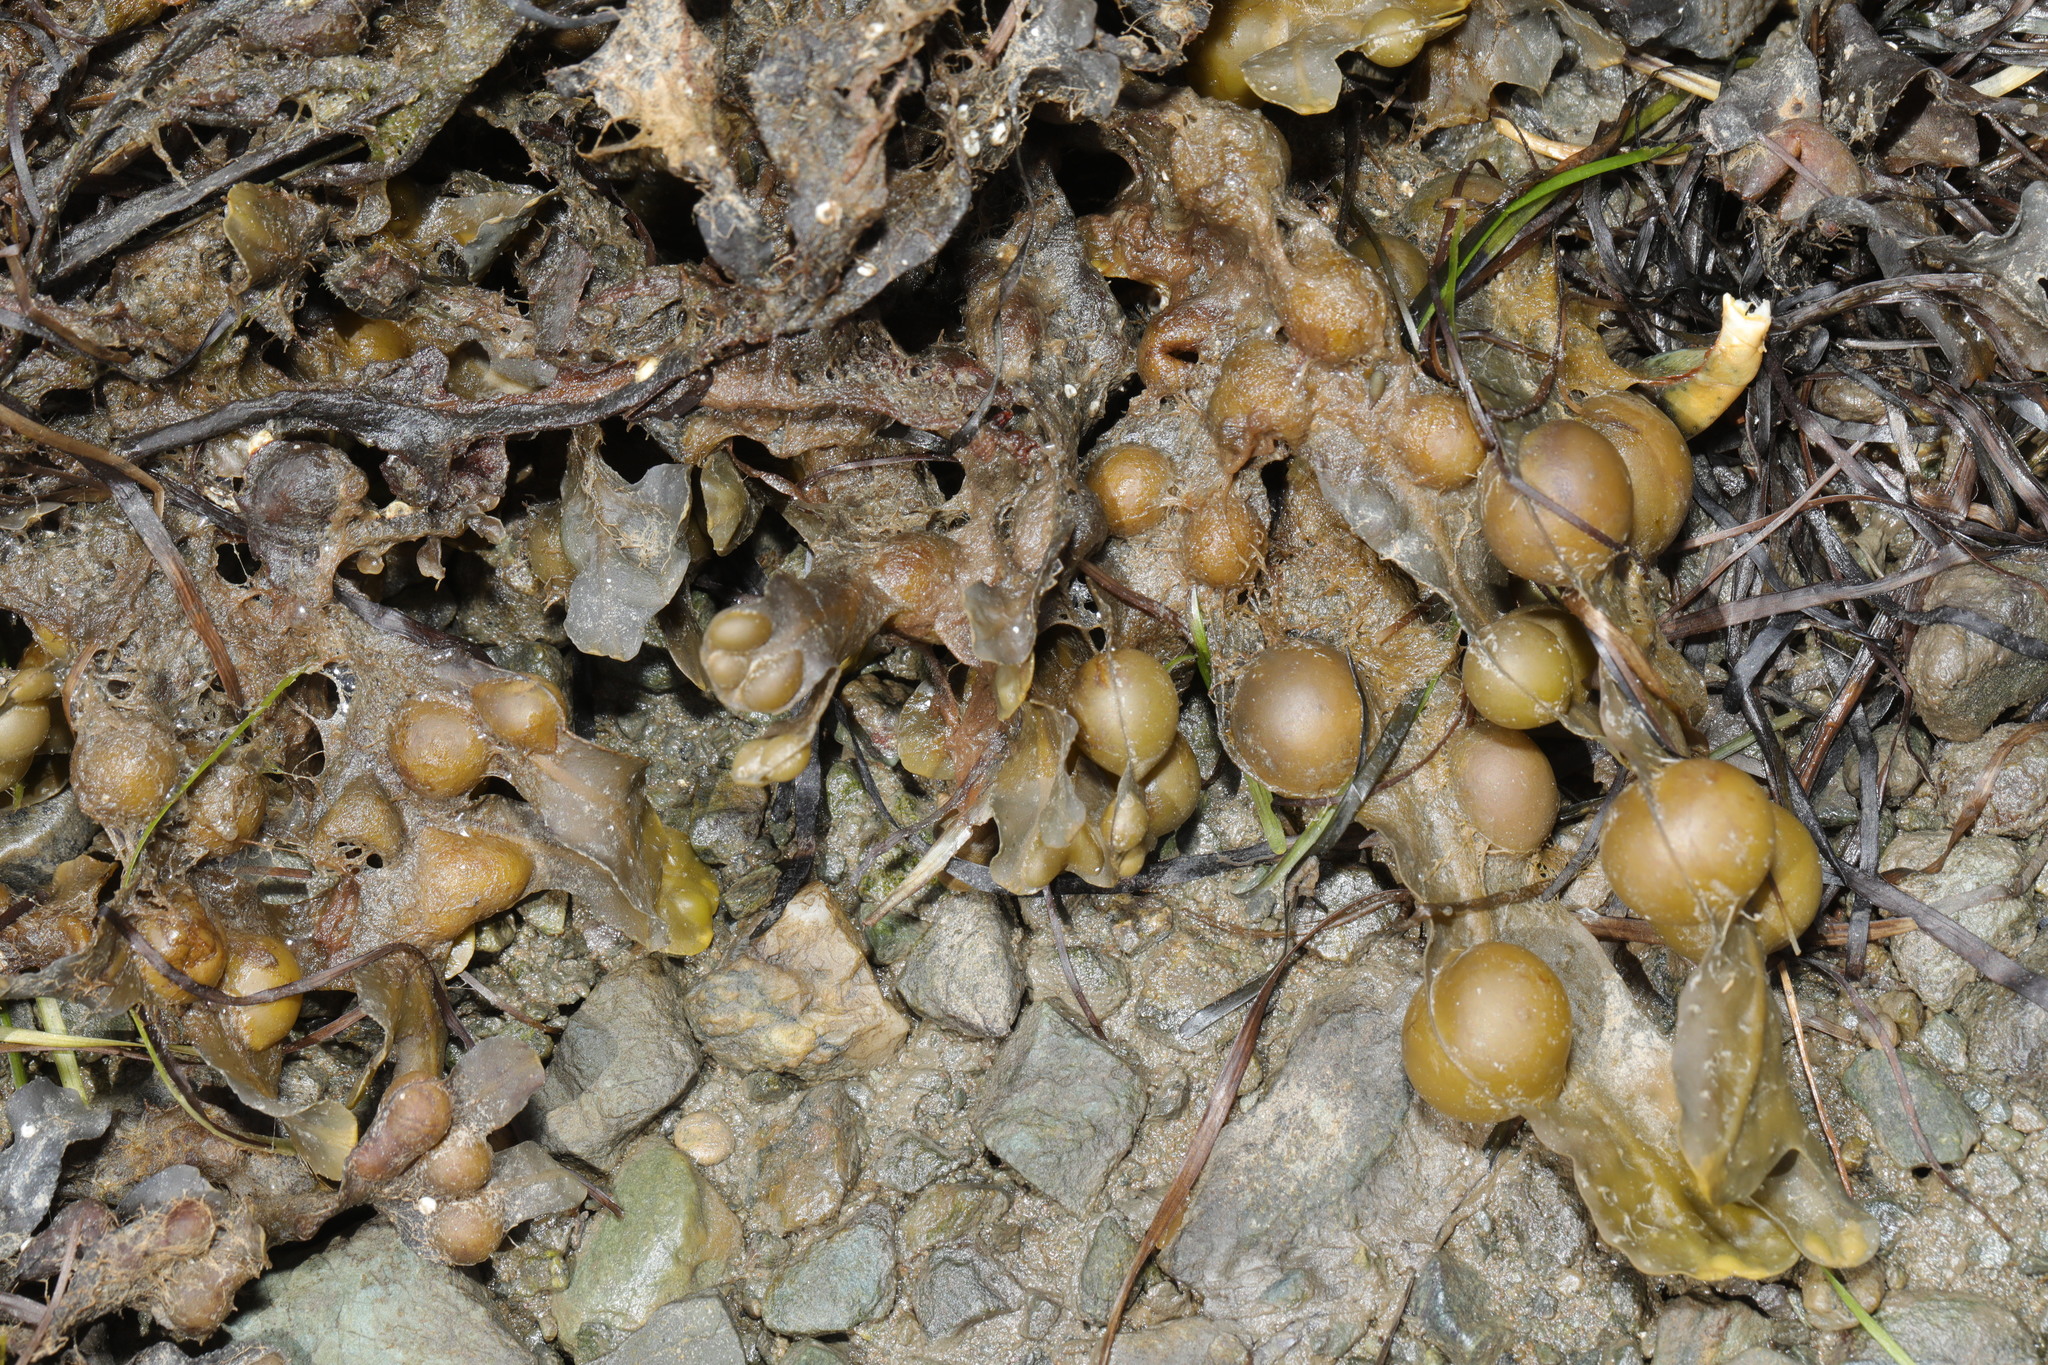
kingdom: Chromista
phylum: Ochrophyta
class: Phaeophyceae
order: Fucales
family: Fucaceae
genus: Fucus
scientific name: Fucus vesiculosus
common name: Bladder wrack
